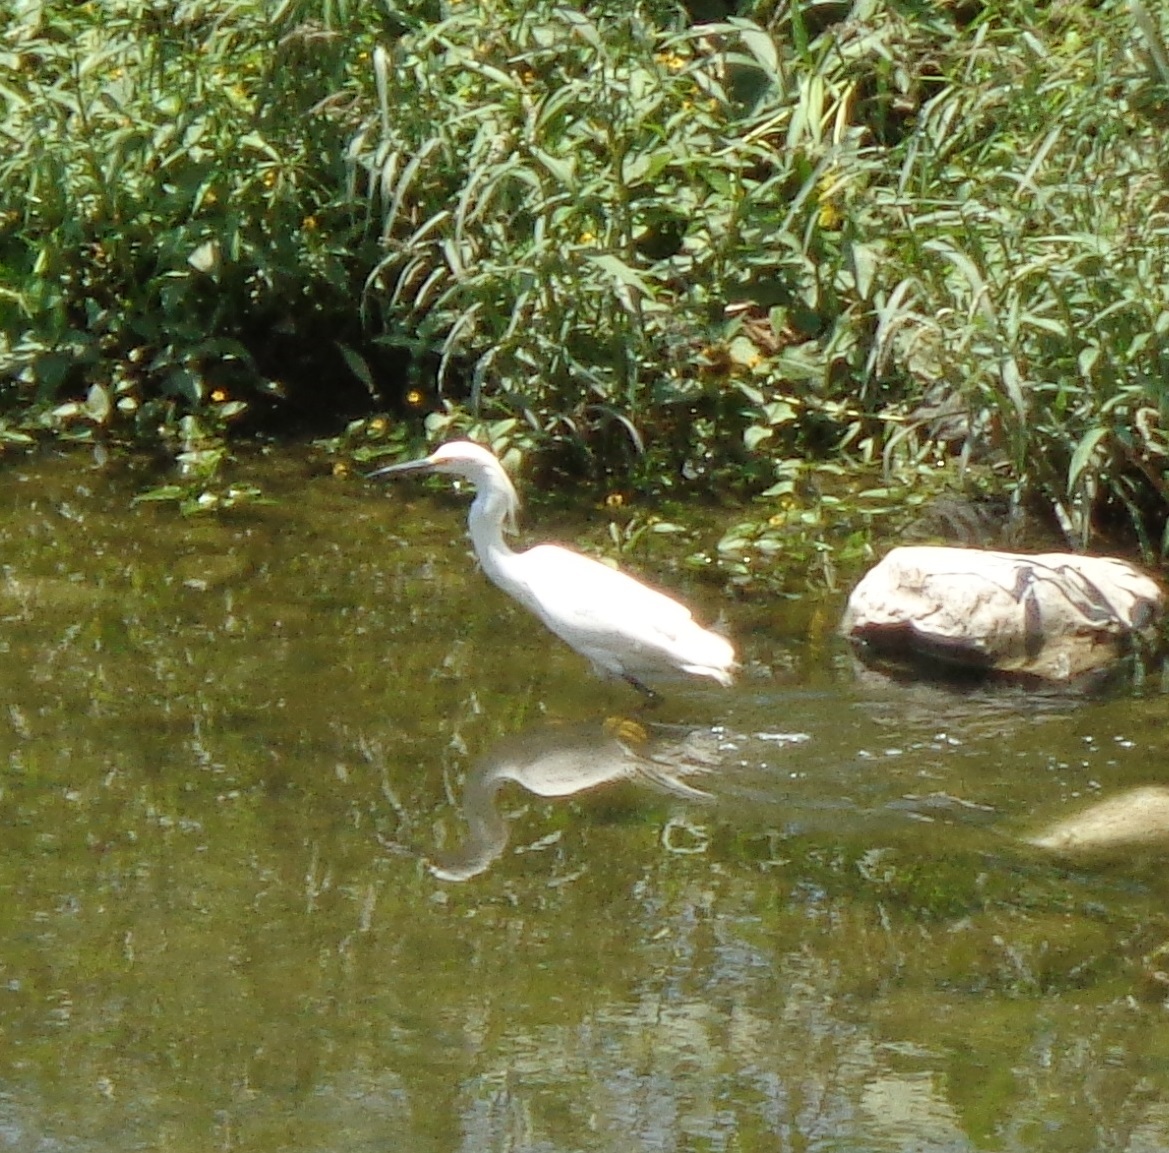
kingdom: Animalia
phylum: Chordata
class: Aves
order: Pelecaniformes
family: Ardeidae
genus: Egretta
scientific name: Egretta thula
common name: Snowy egret
